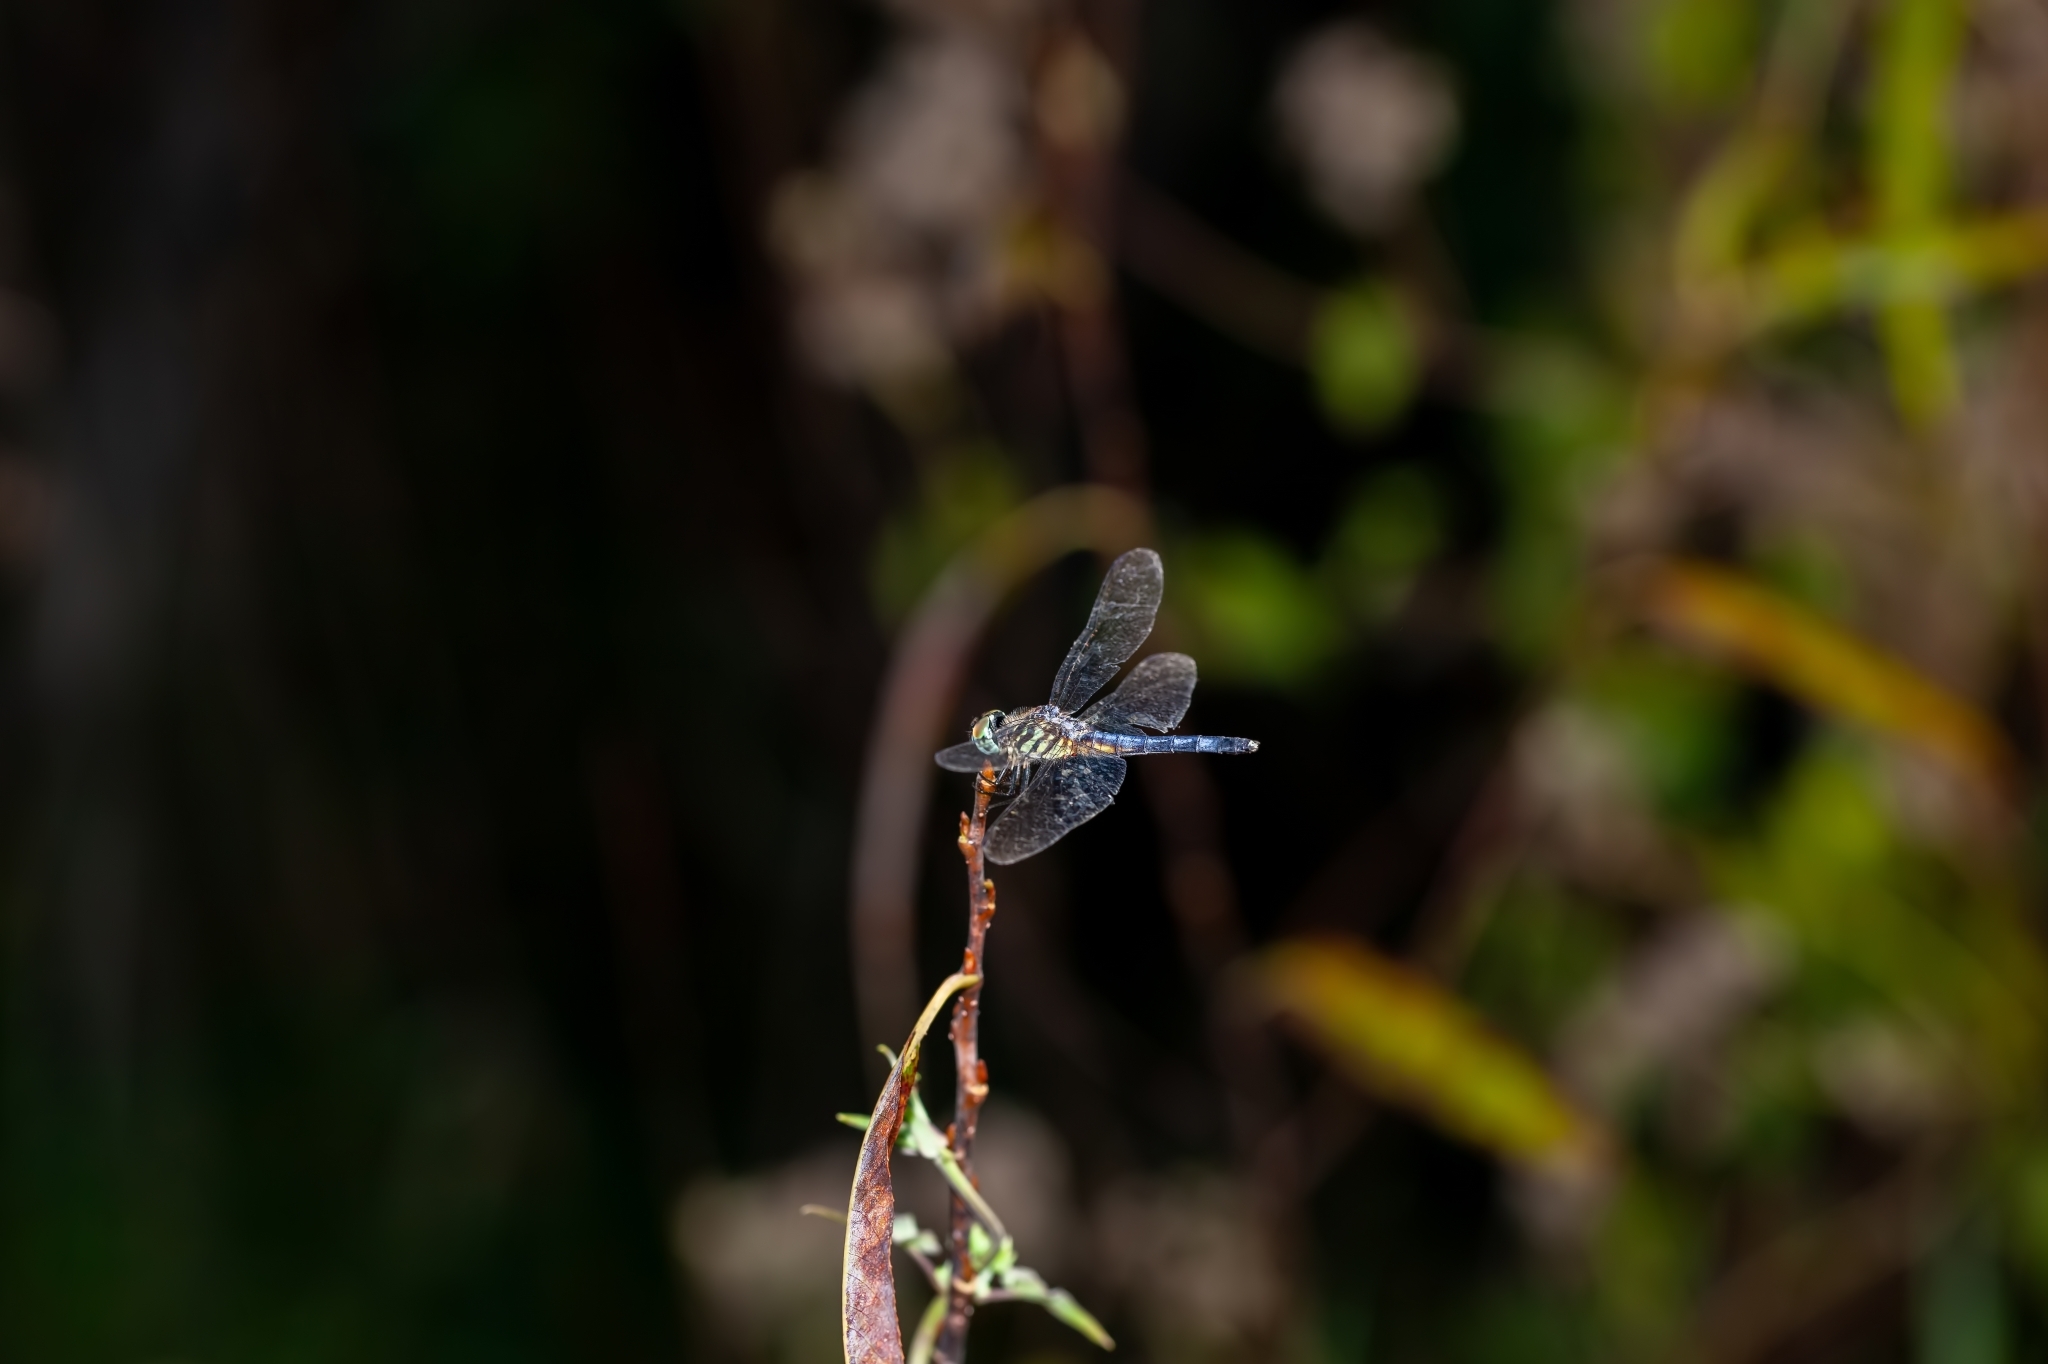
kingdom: Animalia
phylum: Arthropoda
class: Insecta
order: Odonata
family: Libellulidae
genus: Pachydiplax
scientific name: Pachydiplax longipennis
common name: Blue dasher
